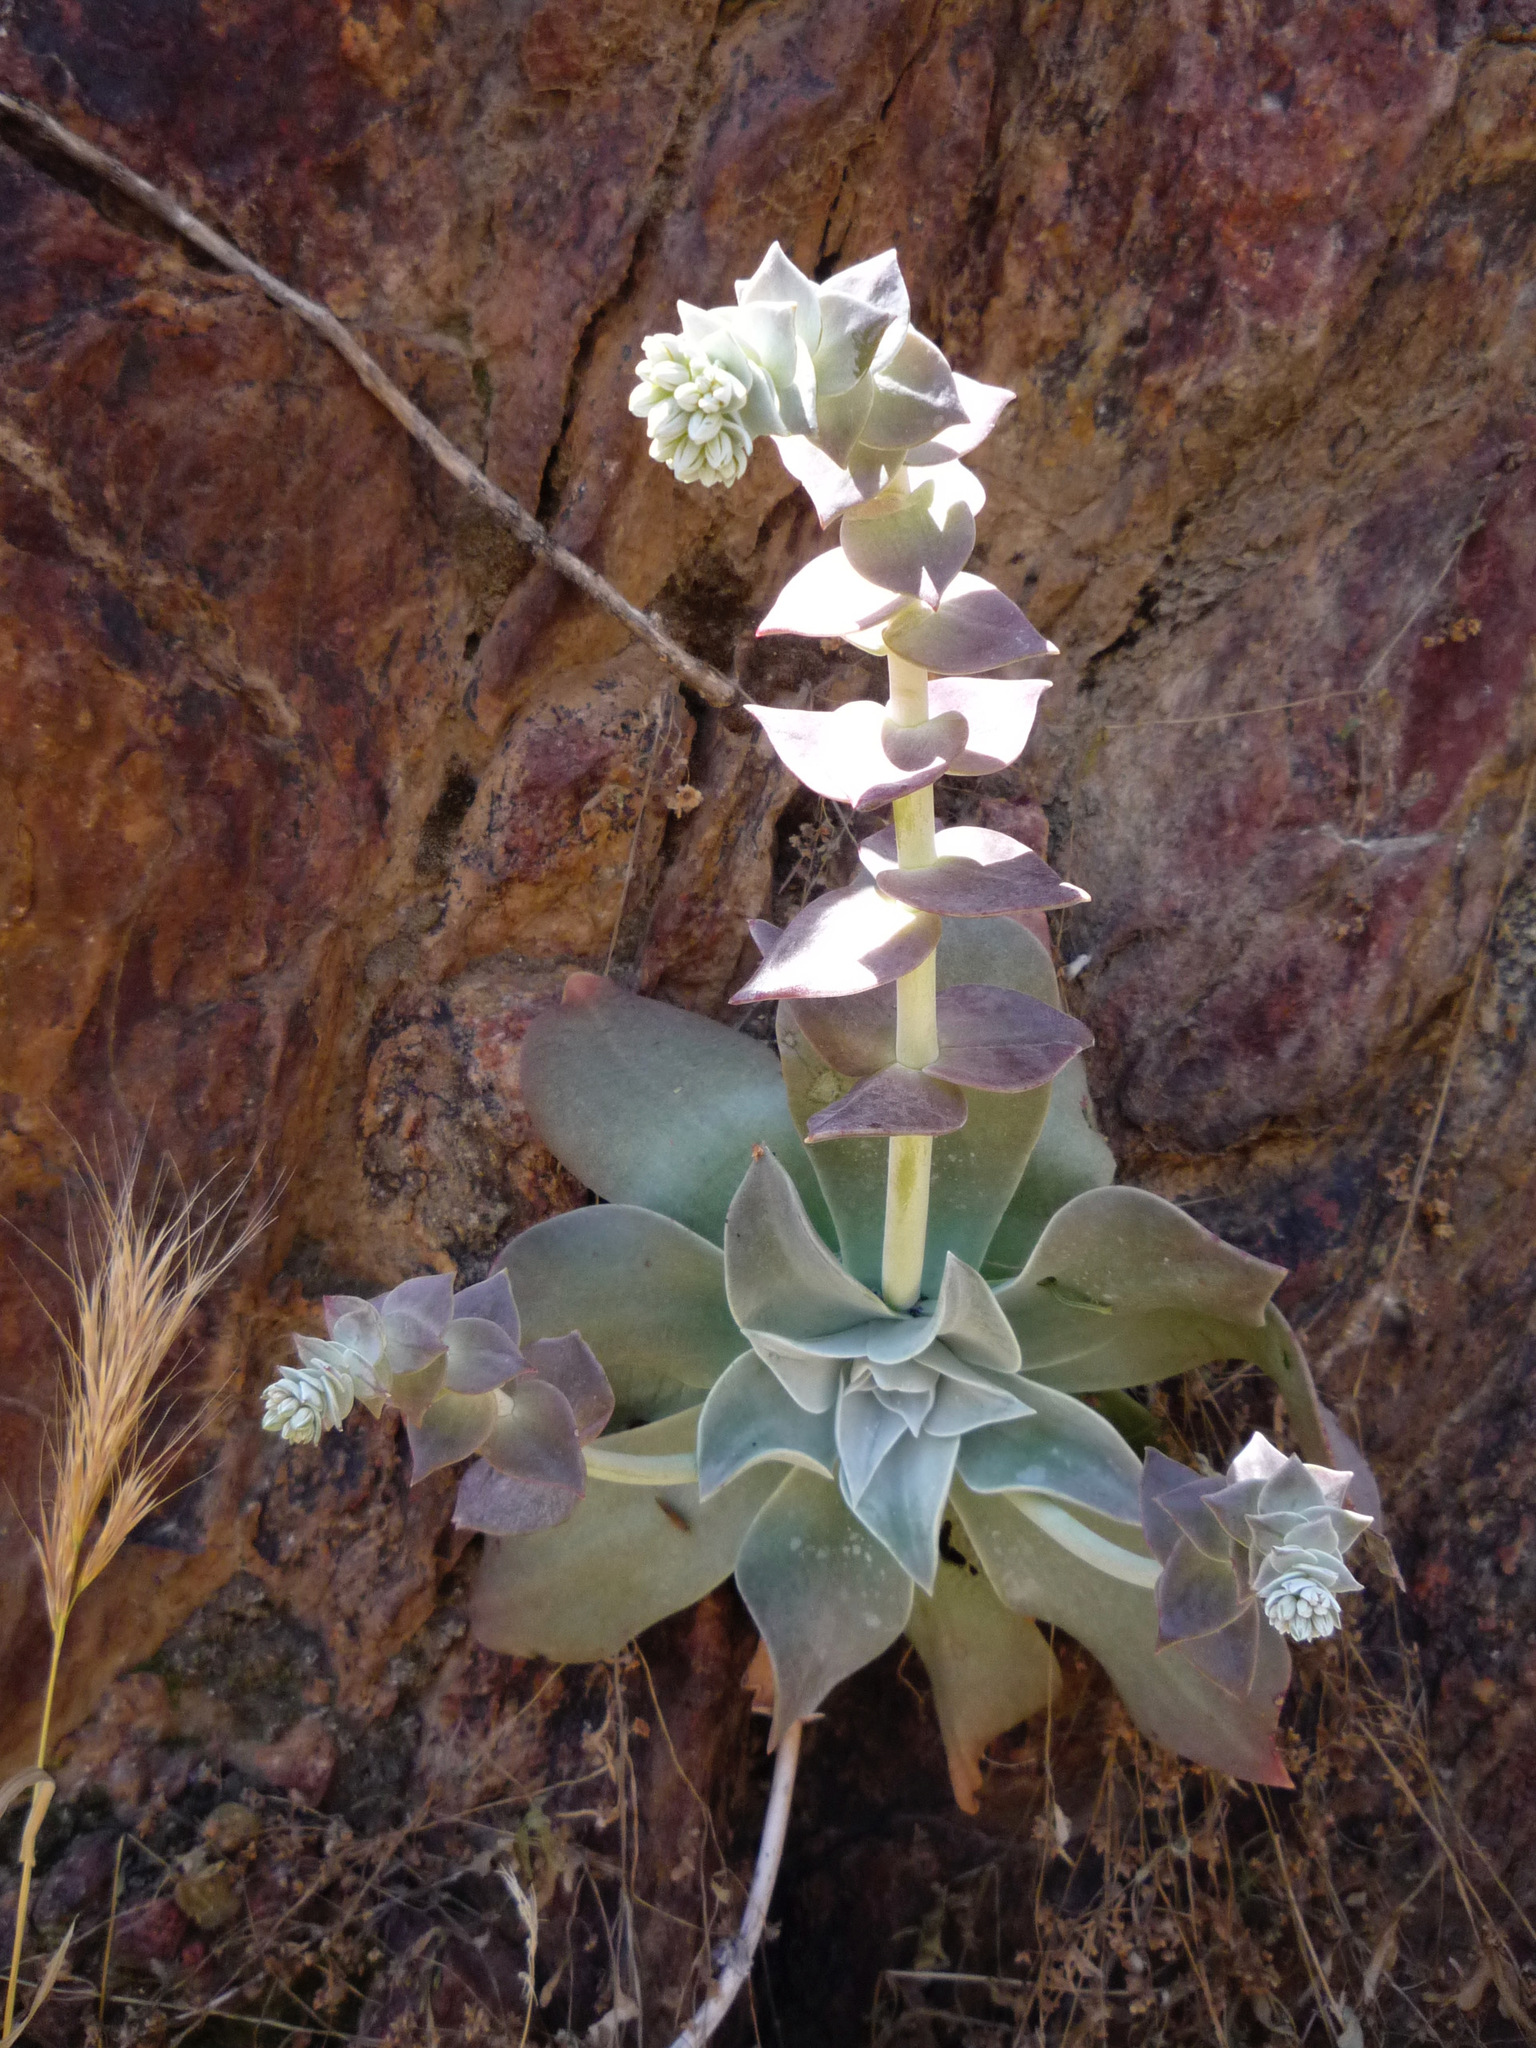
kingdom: Plantae
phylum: Tracheophyta
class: Magnoliopsida
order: Saxifragales
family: Crassulaceae
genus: Dudleya
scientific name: Dudleya arizonica
